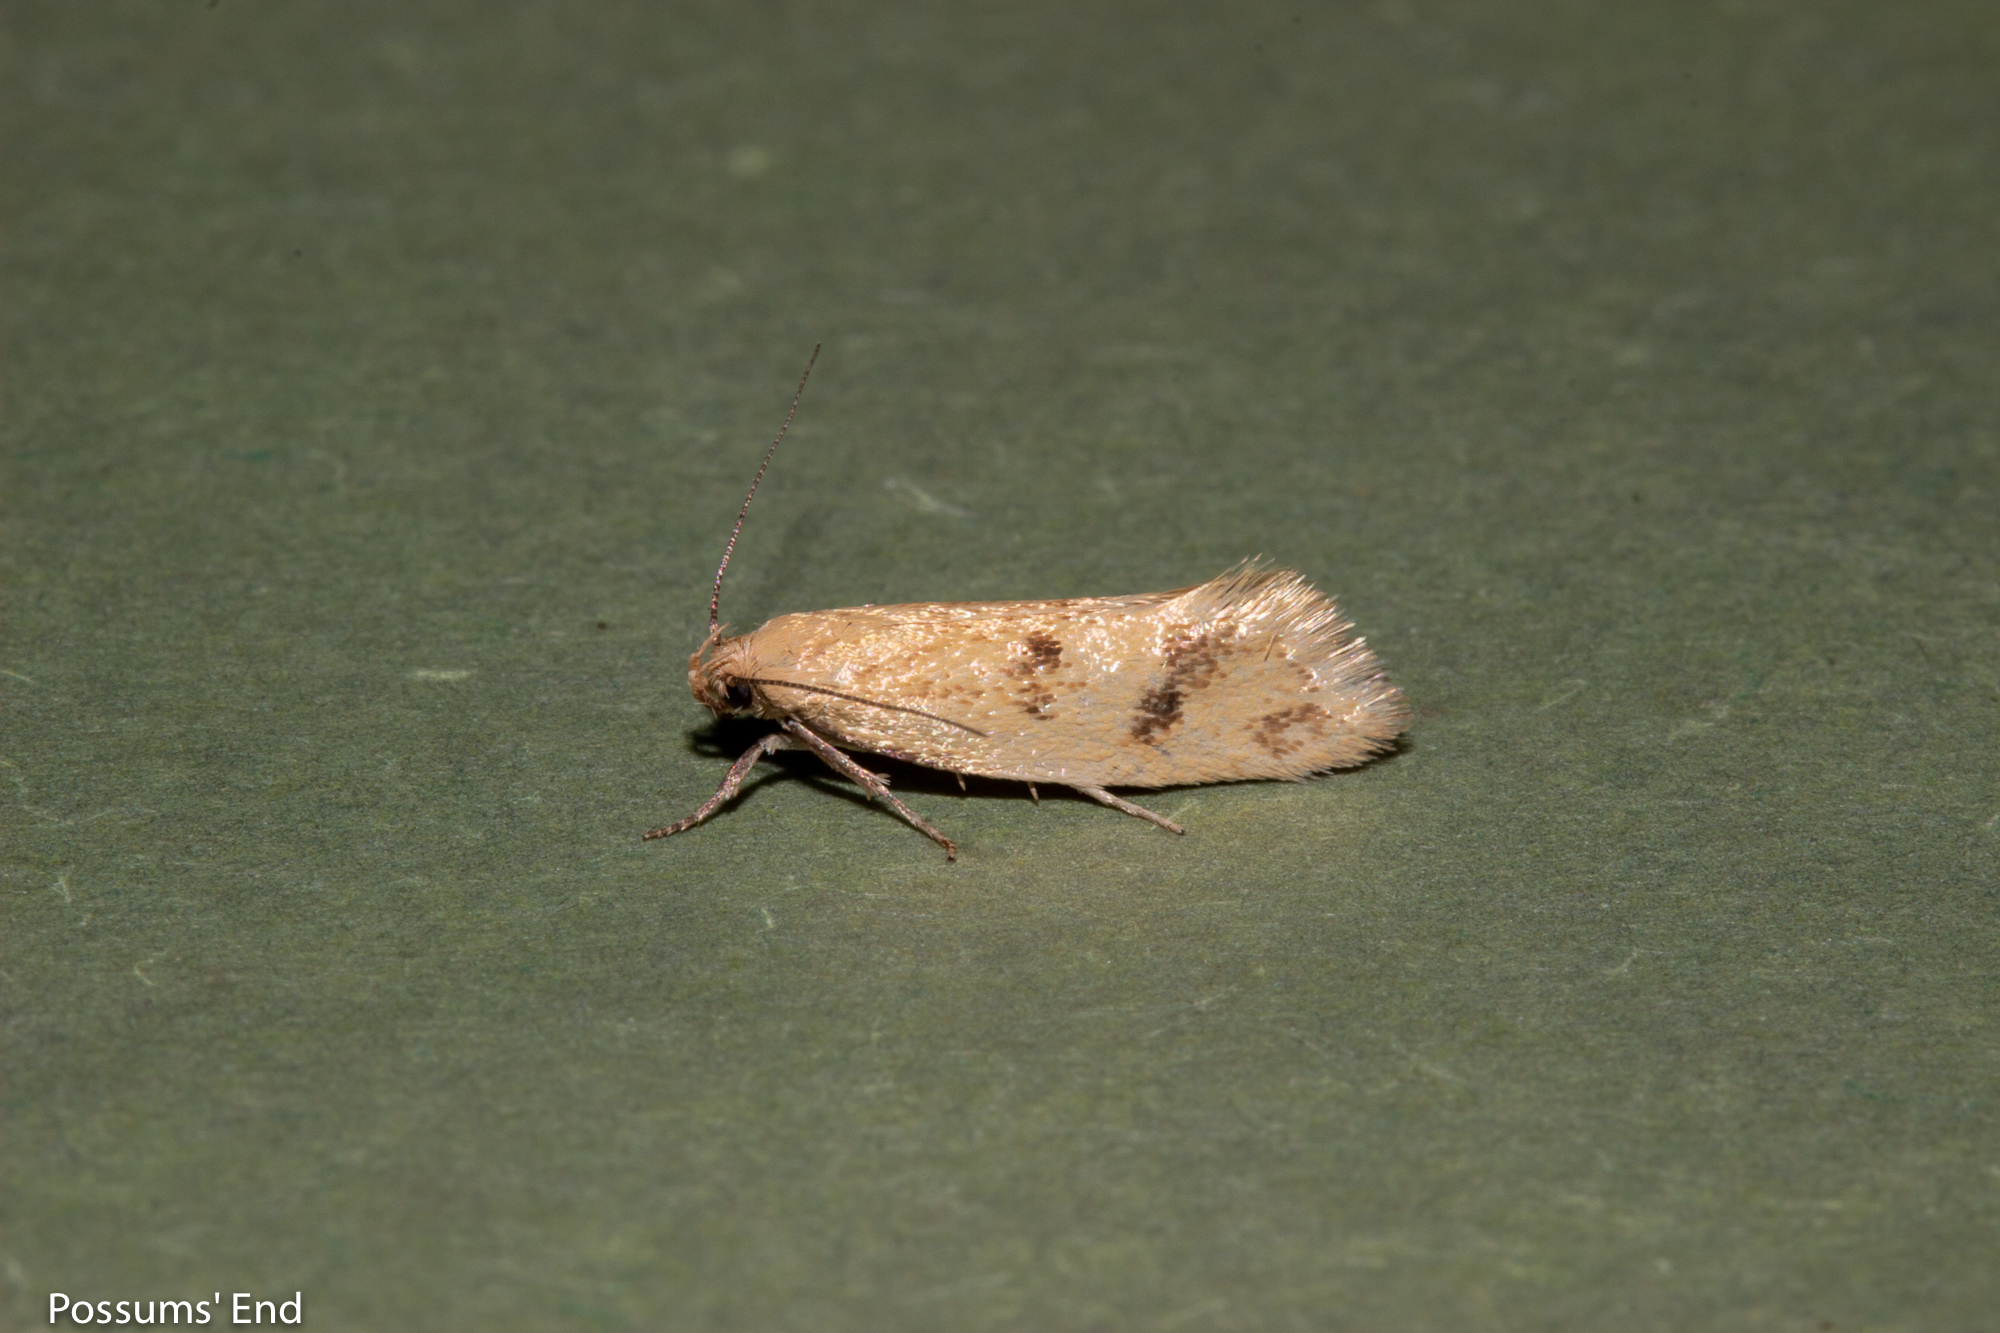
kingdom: Animalia
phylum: Arthropoda
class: Insecta
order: Lepidoptera
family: Oecophoridae
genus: Tingena
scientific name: Tingena
